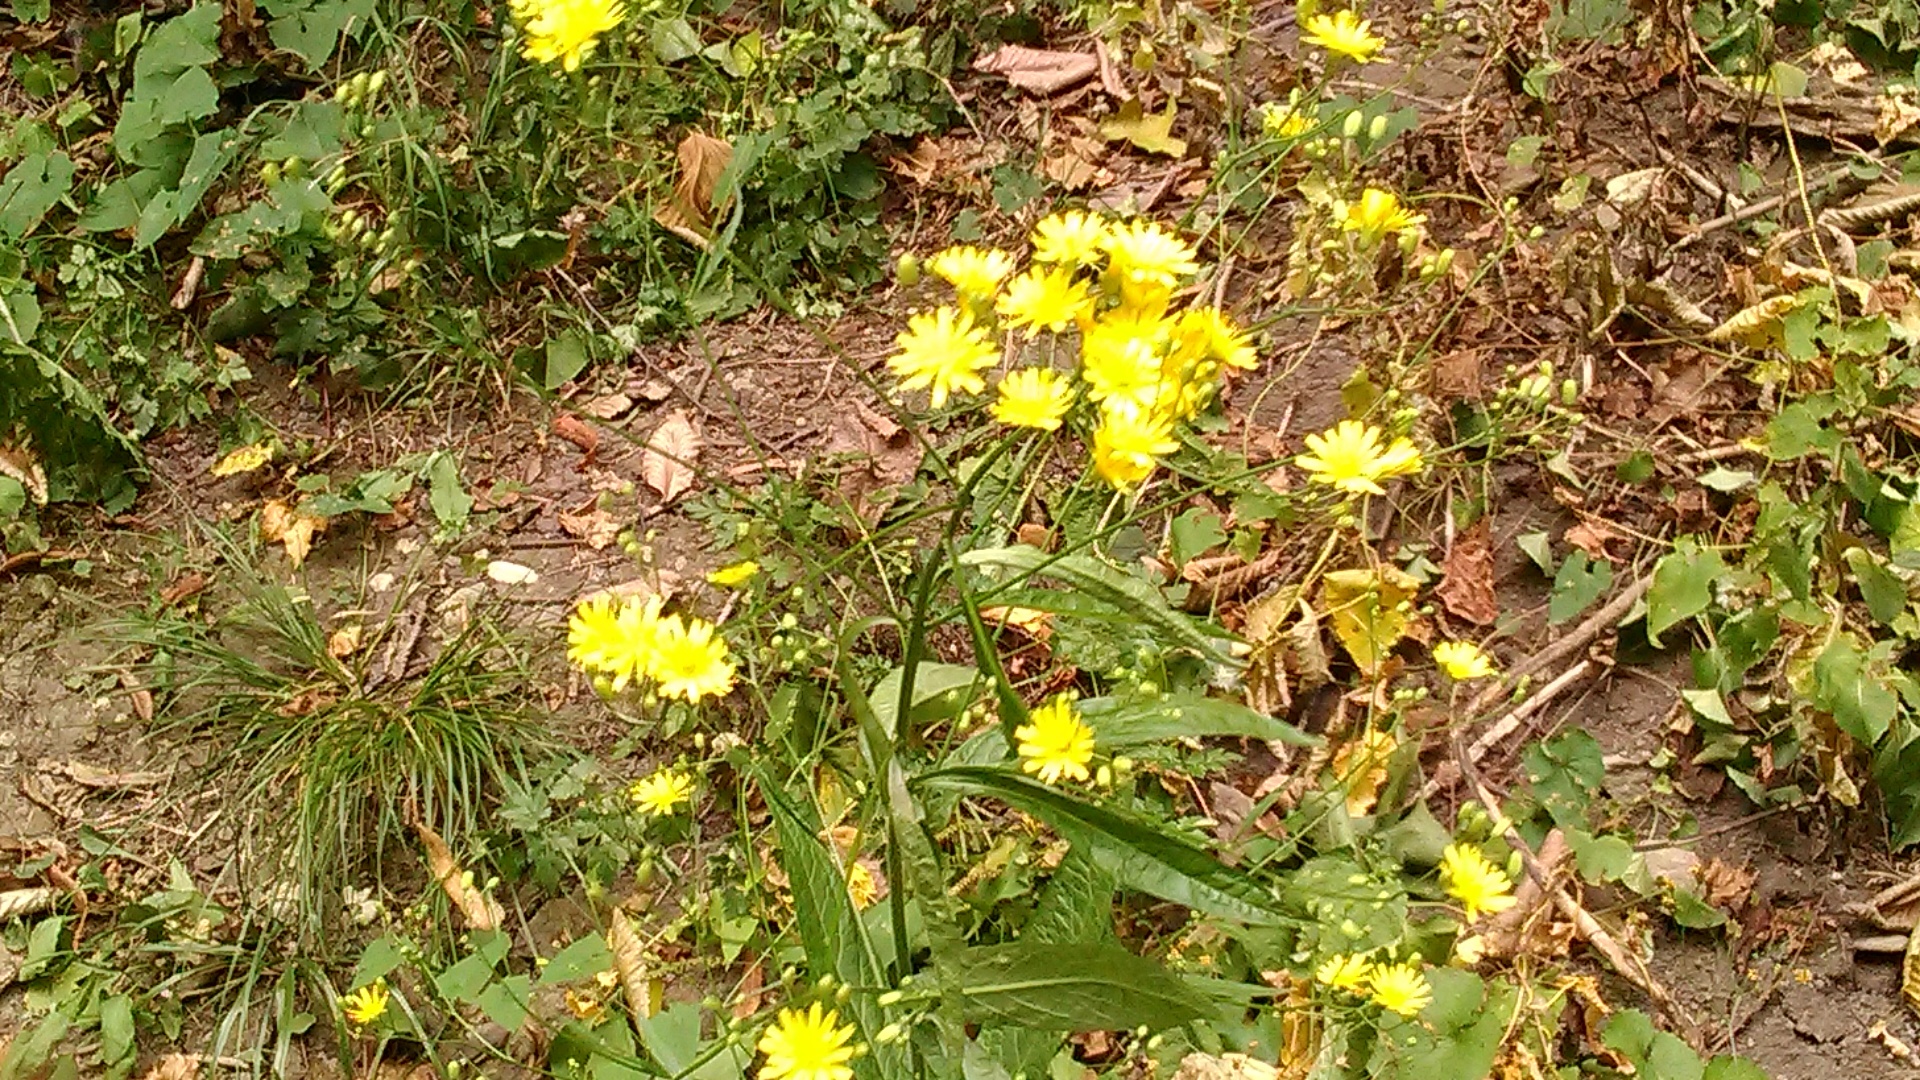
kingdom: Plantae
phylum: Tracheophyta
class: Magnoliopsida
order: Asterales
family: Asteraceae
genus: Lapsana
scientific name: Lapsana communis
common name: Nipplewort
